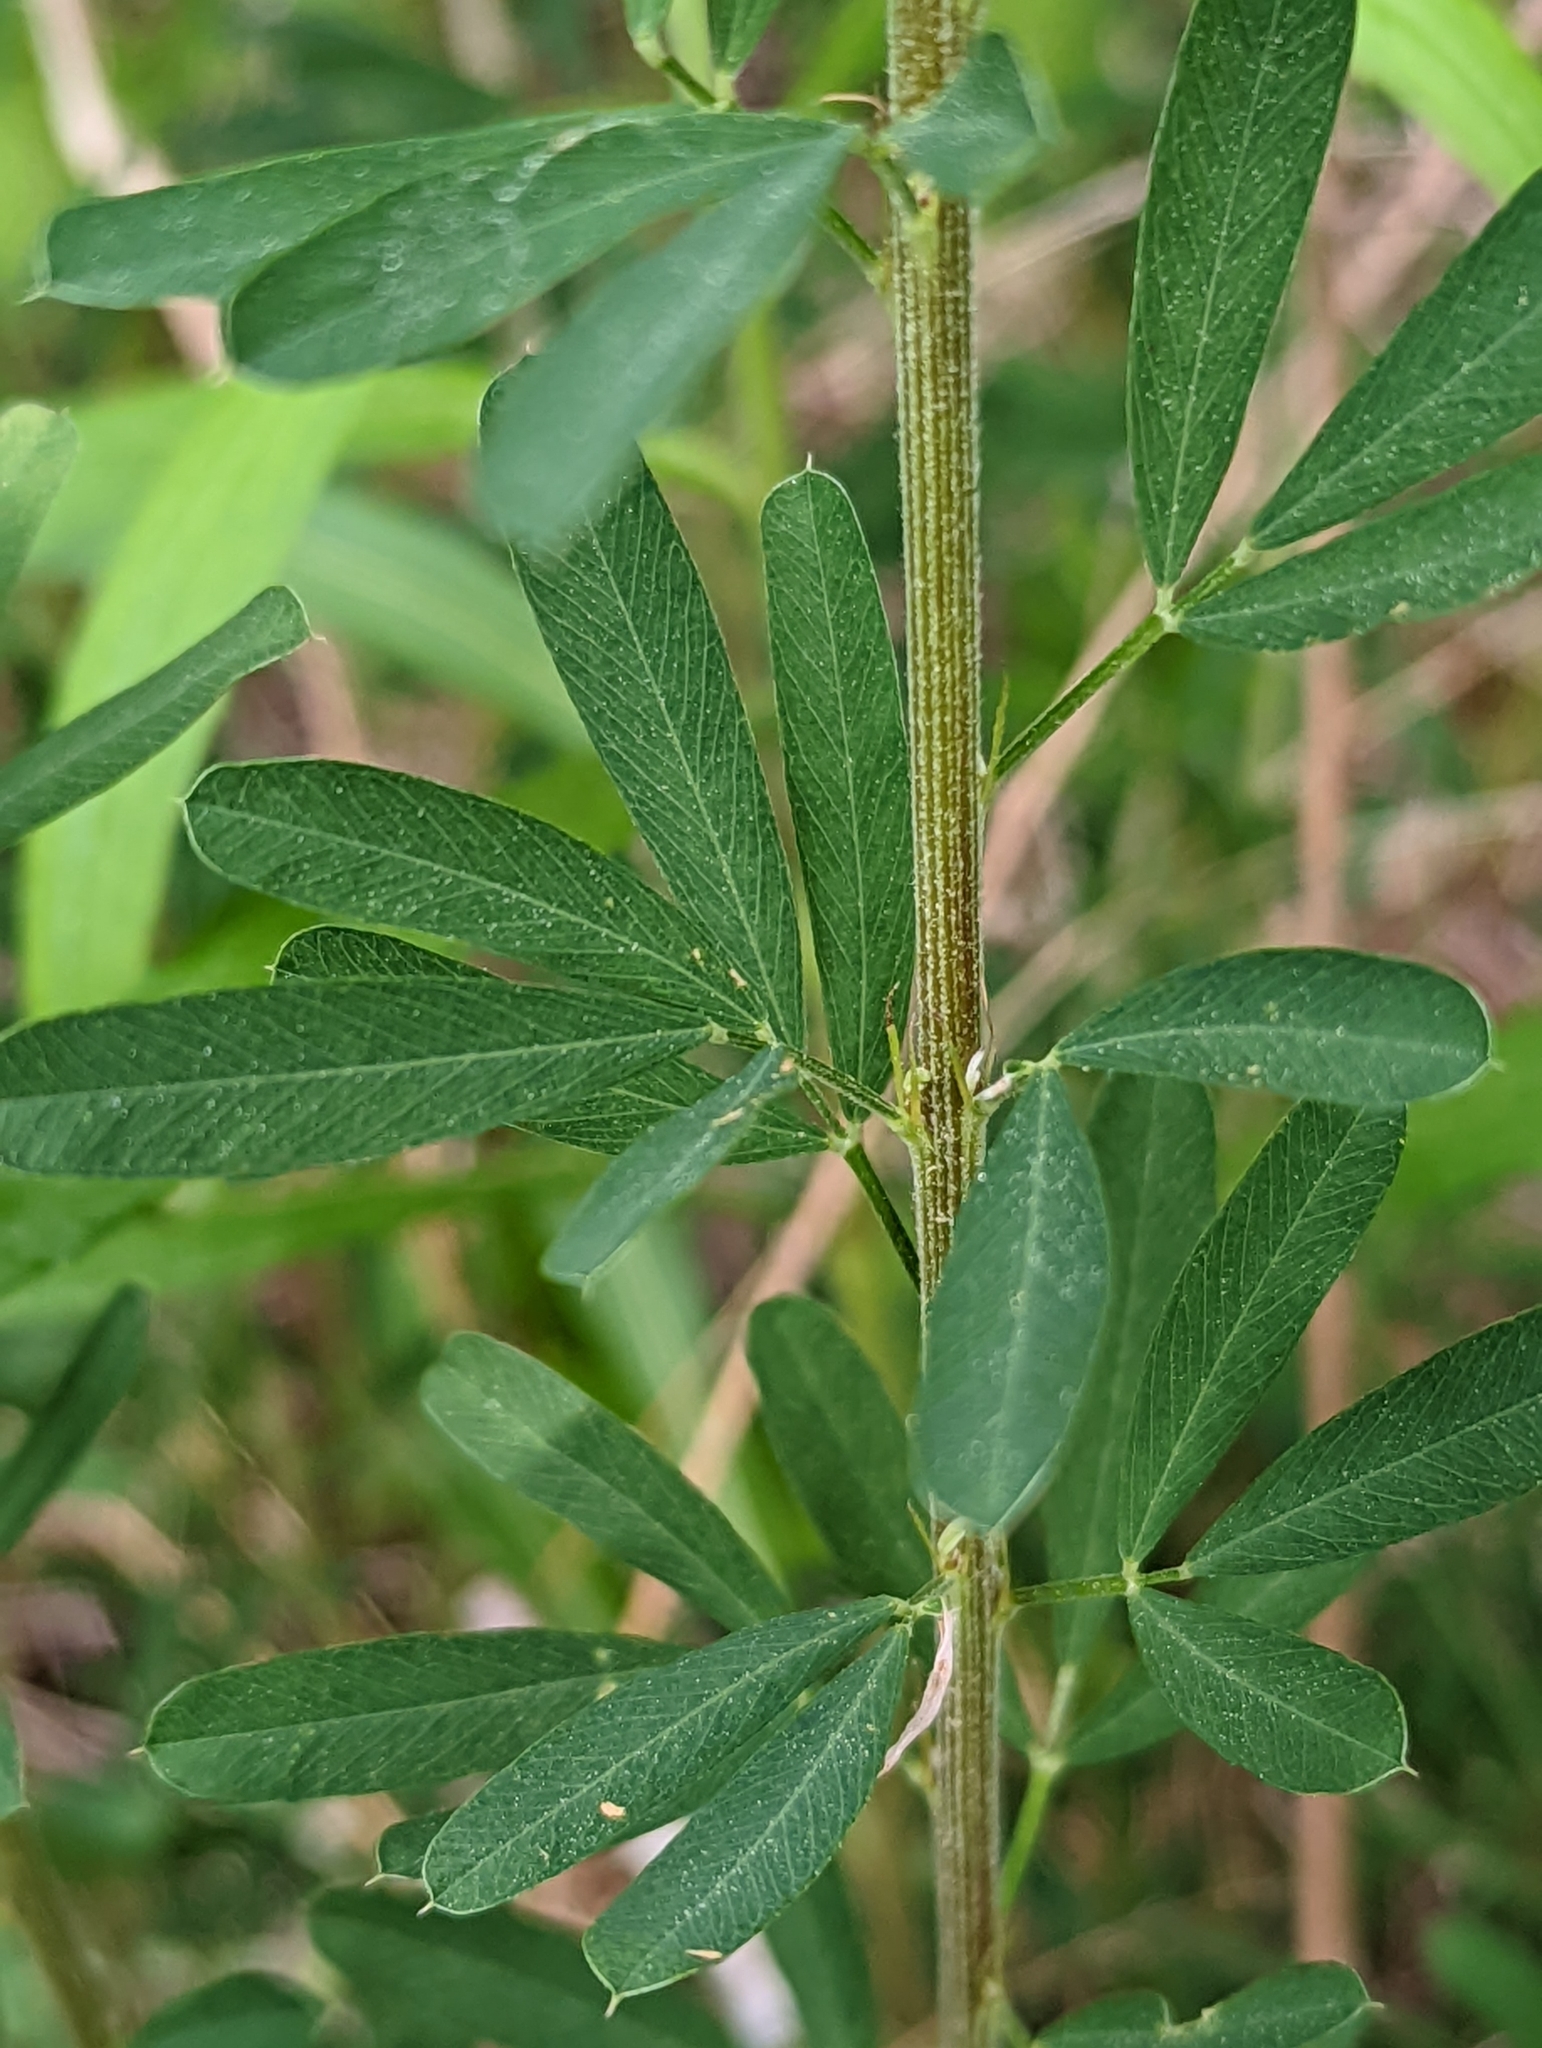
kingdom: Plantae
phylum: Tracheophyta
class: Magnoliopsida
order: Fabales
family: Fabaceae
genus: Lespedeza
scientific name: Lespedeza cuneata
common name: Chinese bush-clover
